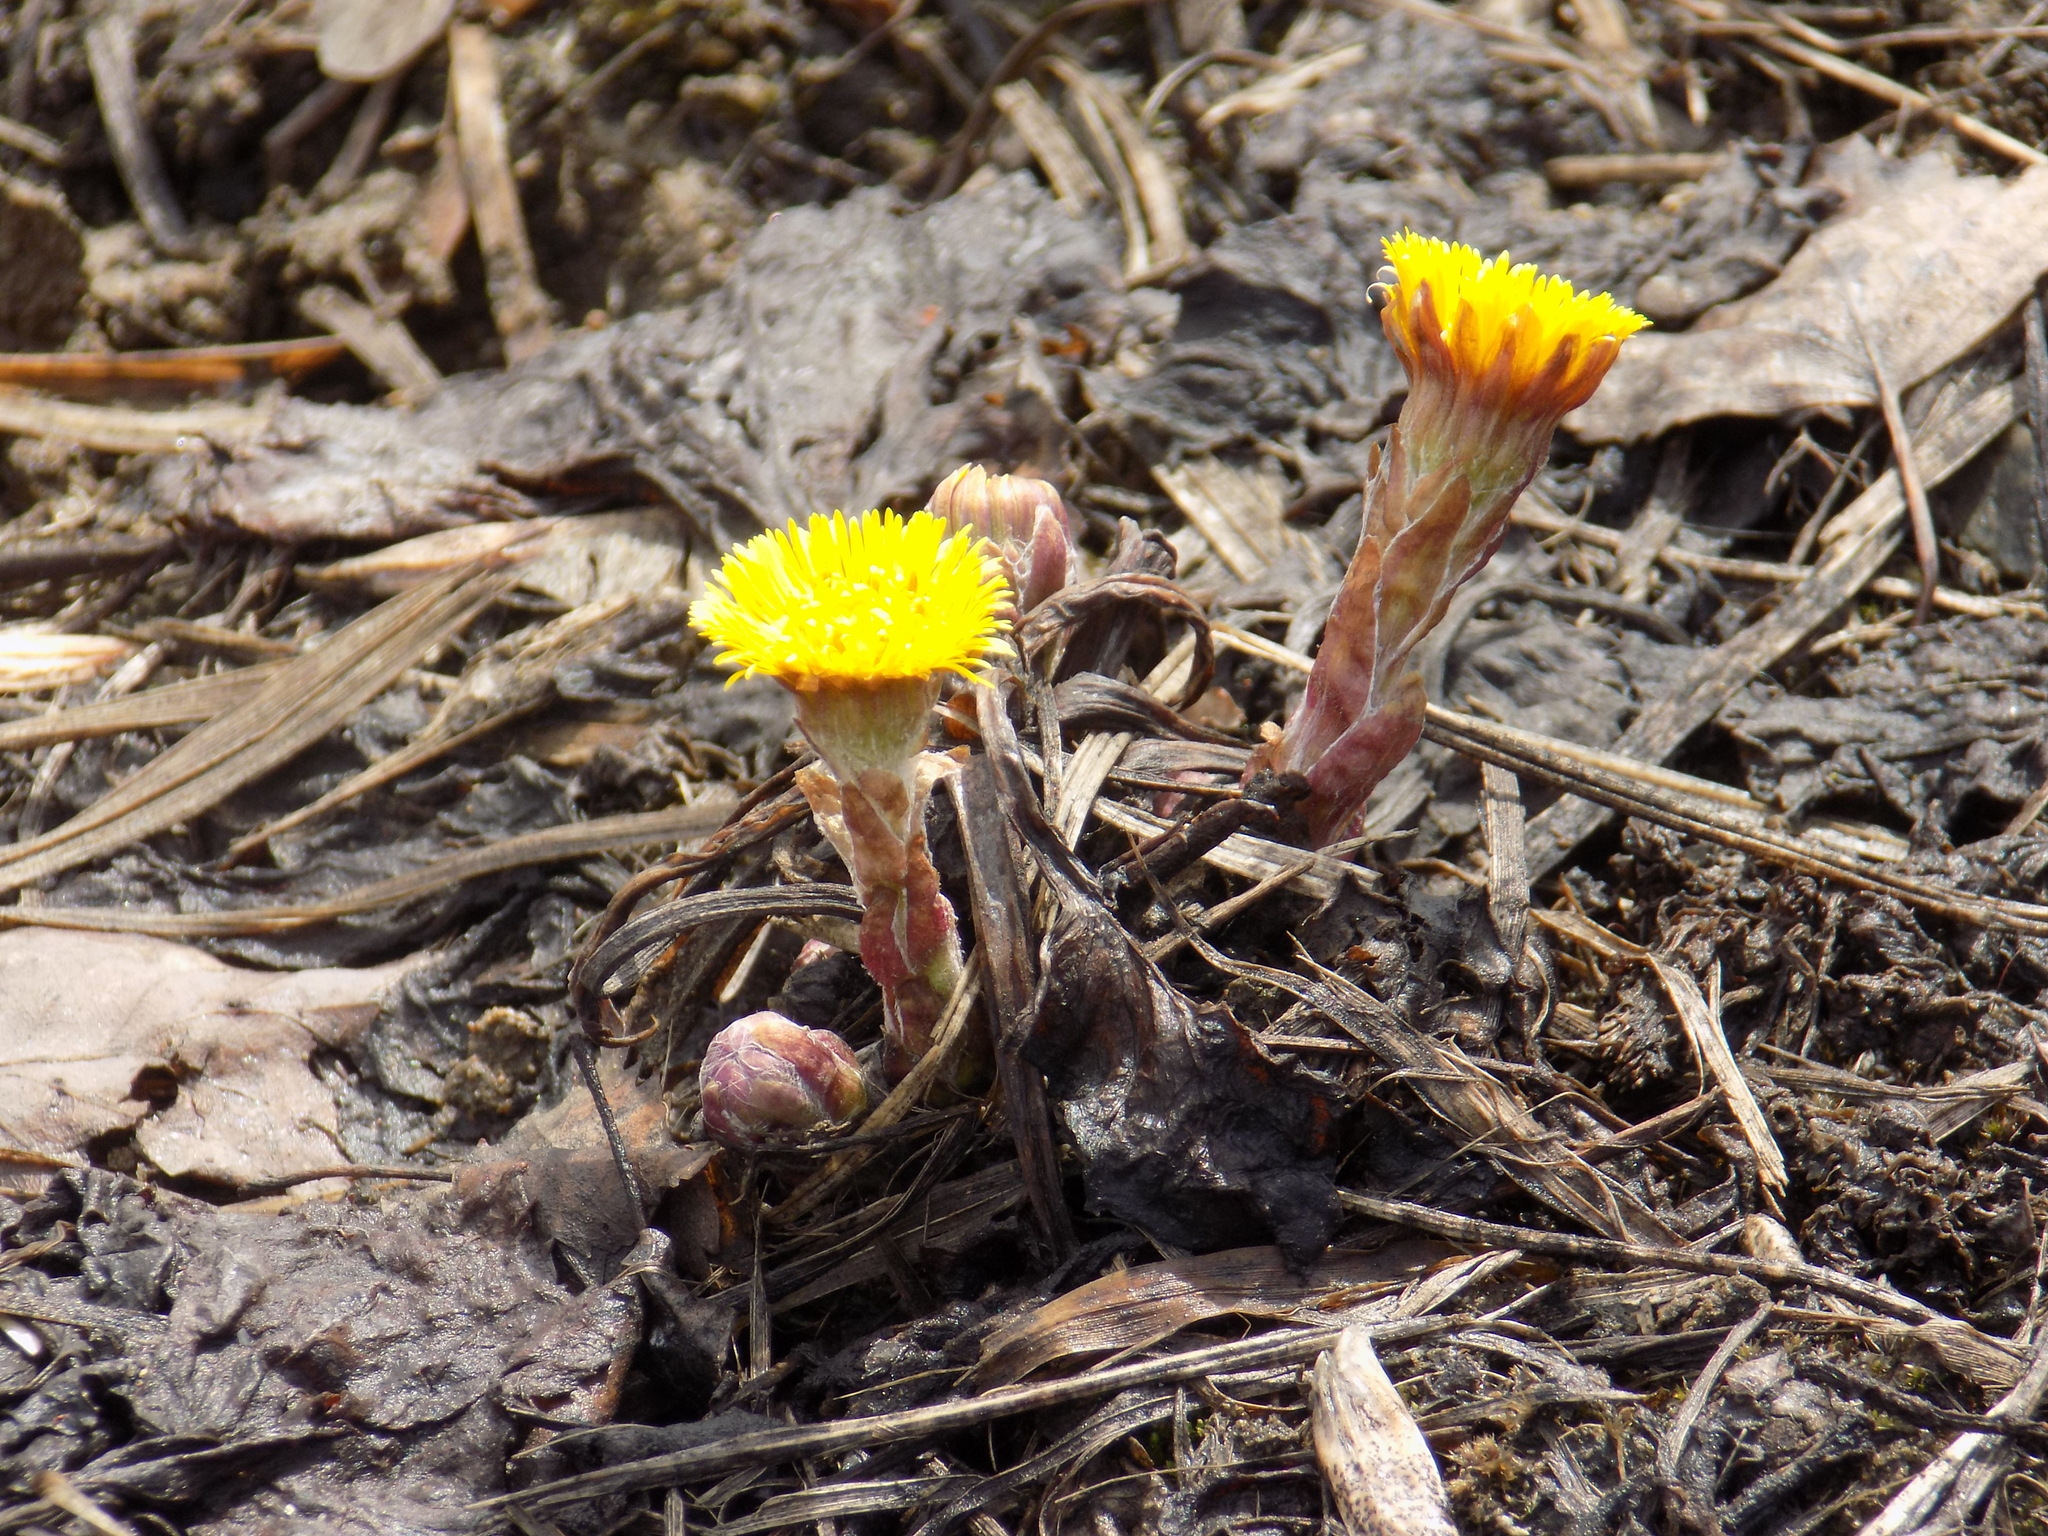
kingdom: Plantae
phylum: Tracheophyta
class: Magnoliopsida
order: Asterales
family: Asteraceae
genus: Tussilago
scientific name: Tussilago farfara
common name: Coltsfoot
